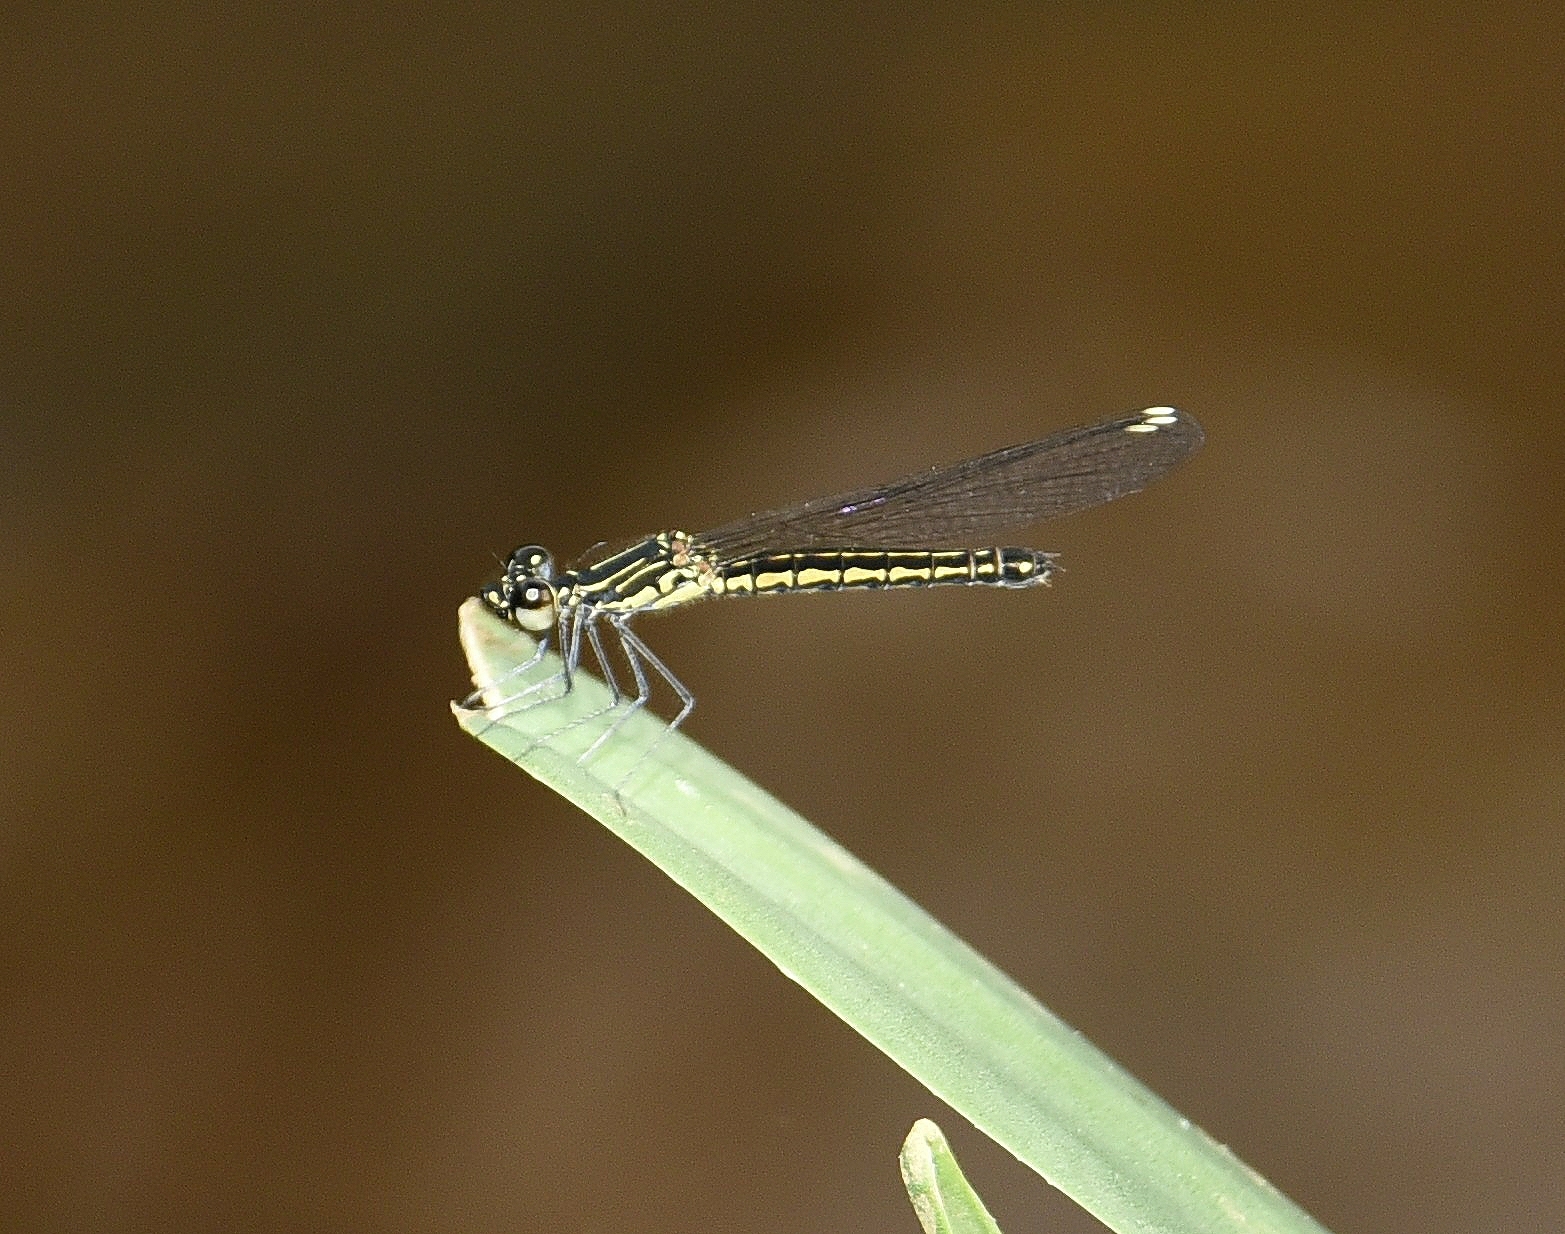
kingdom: Animalia
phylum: Arthropoda
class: Insecta
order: Odonata
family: Chlorocyphidae
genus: Libellago
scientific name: Libellago indica
